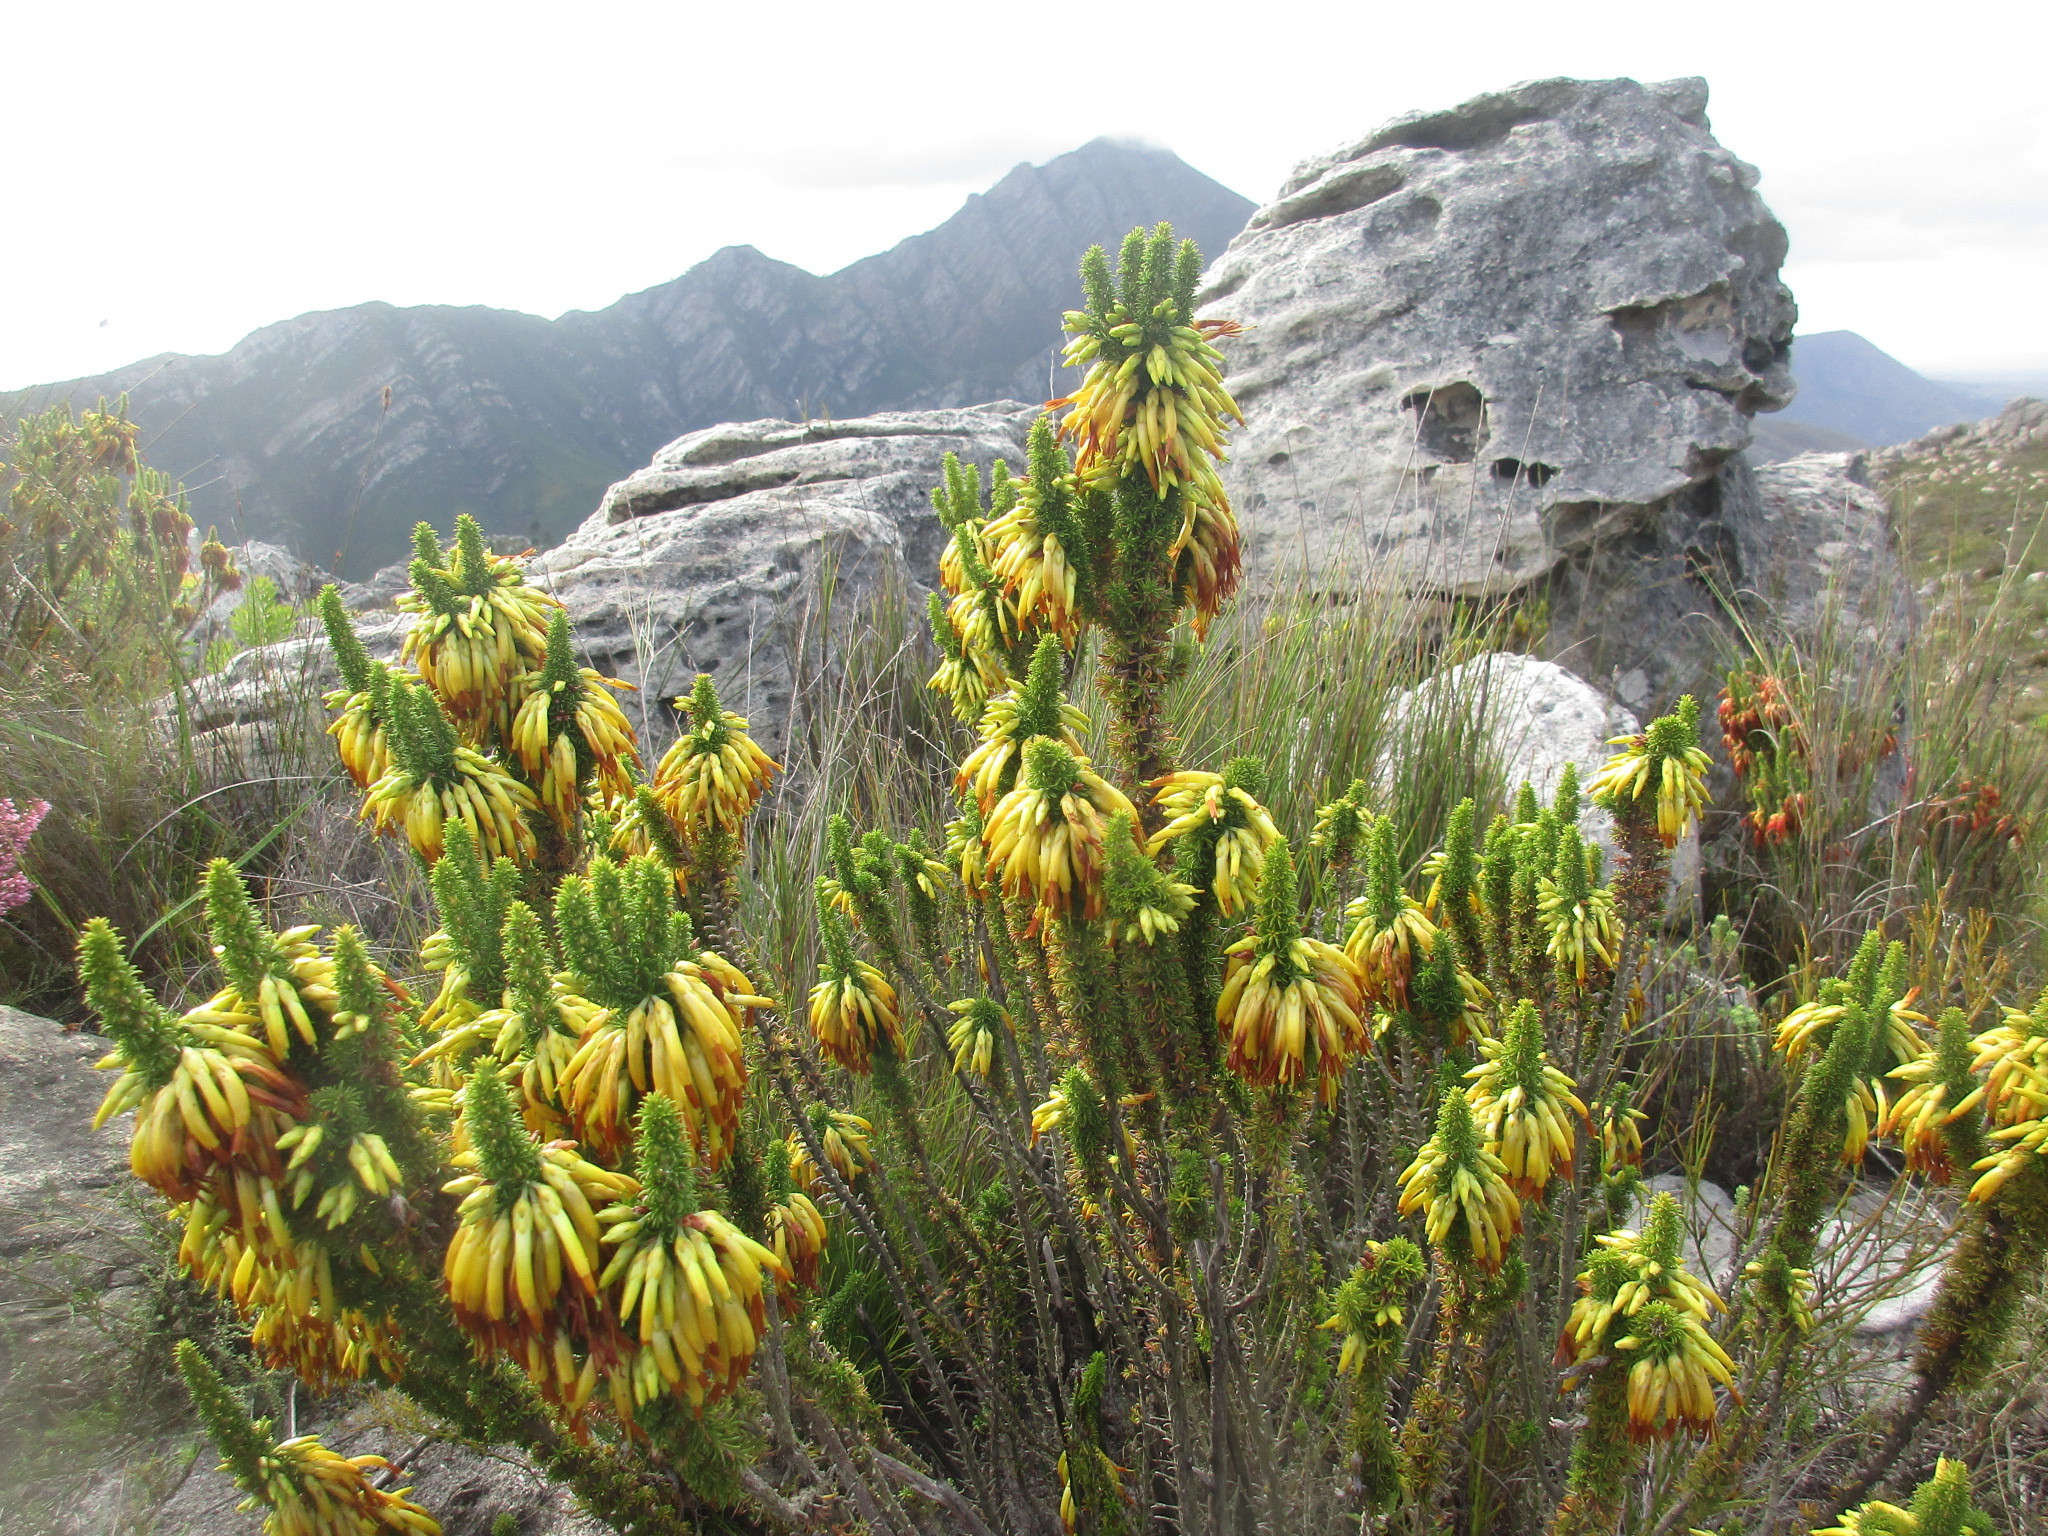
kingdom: Plantae
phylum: Tracheophyta
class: Magnoliopsida
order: Ericales
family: Ericaceae
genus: Erica
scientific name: Erica coccinea
